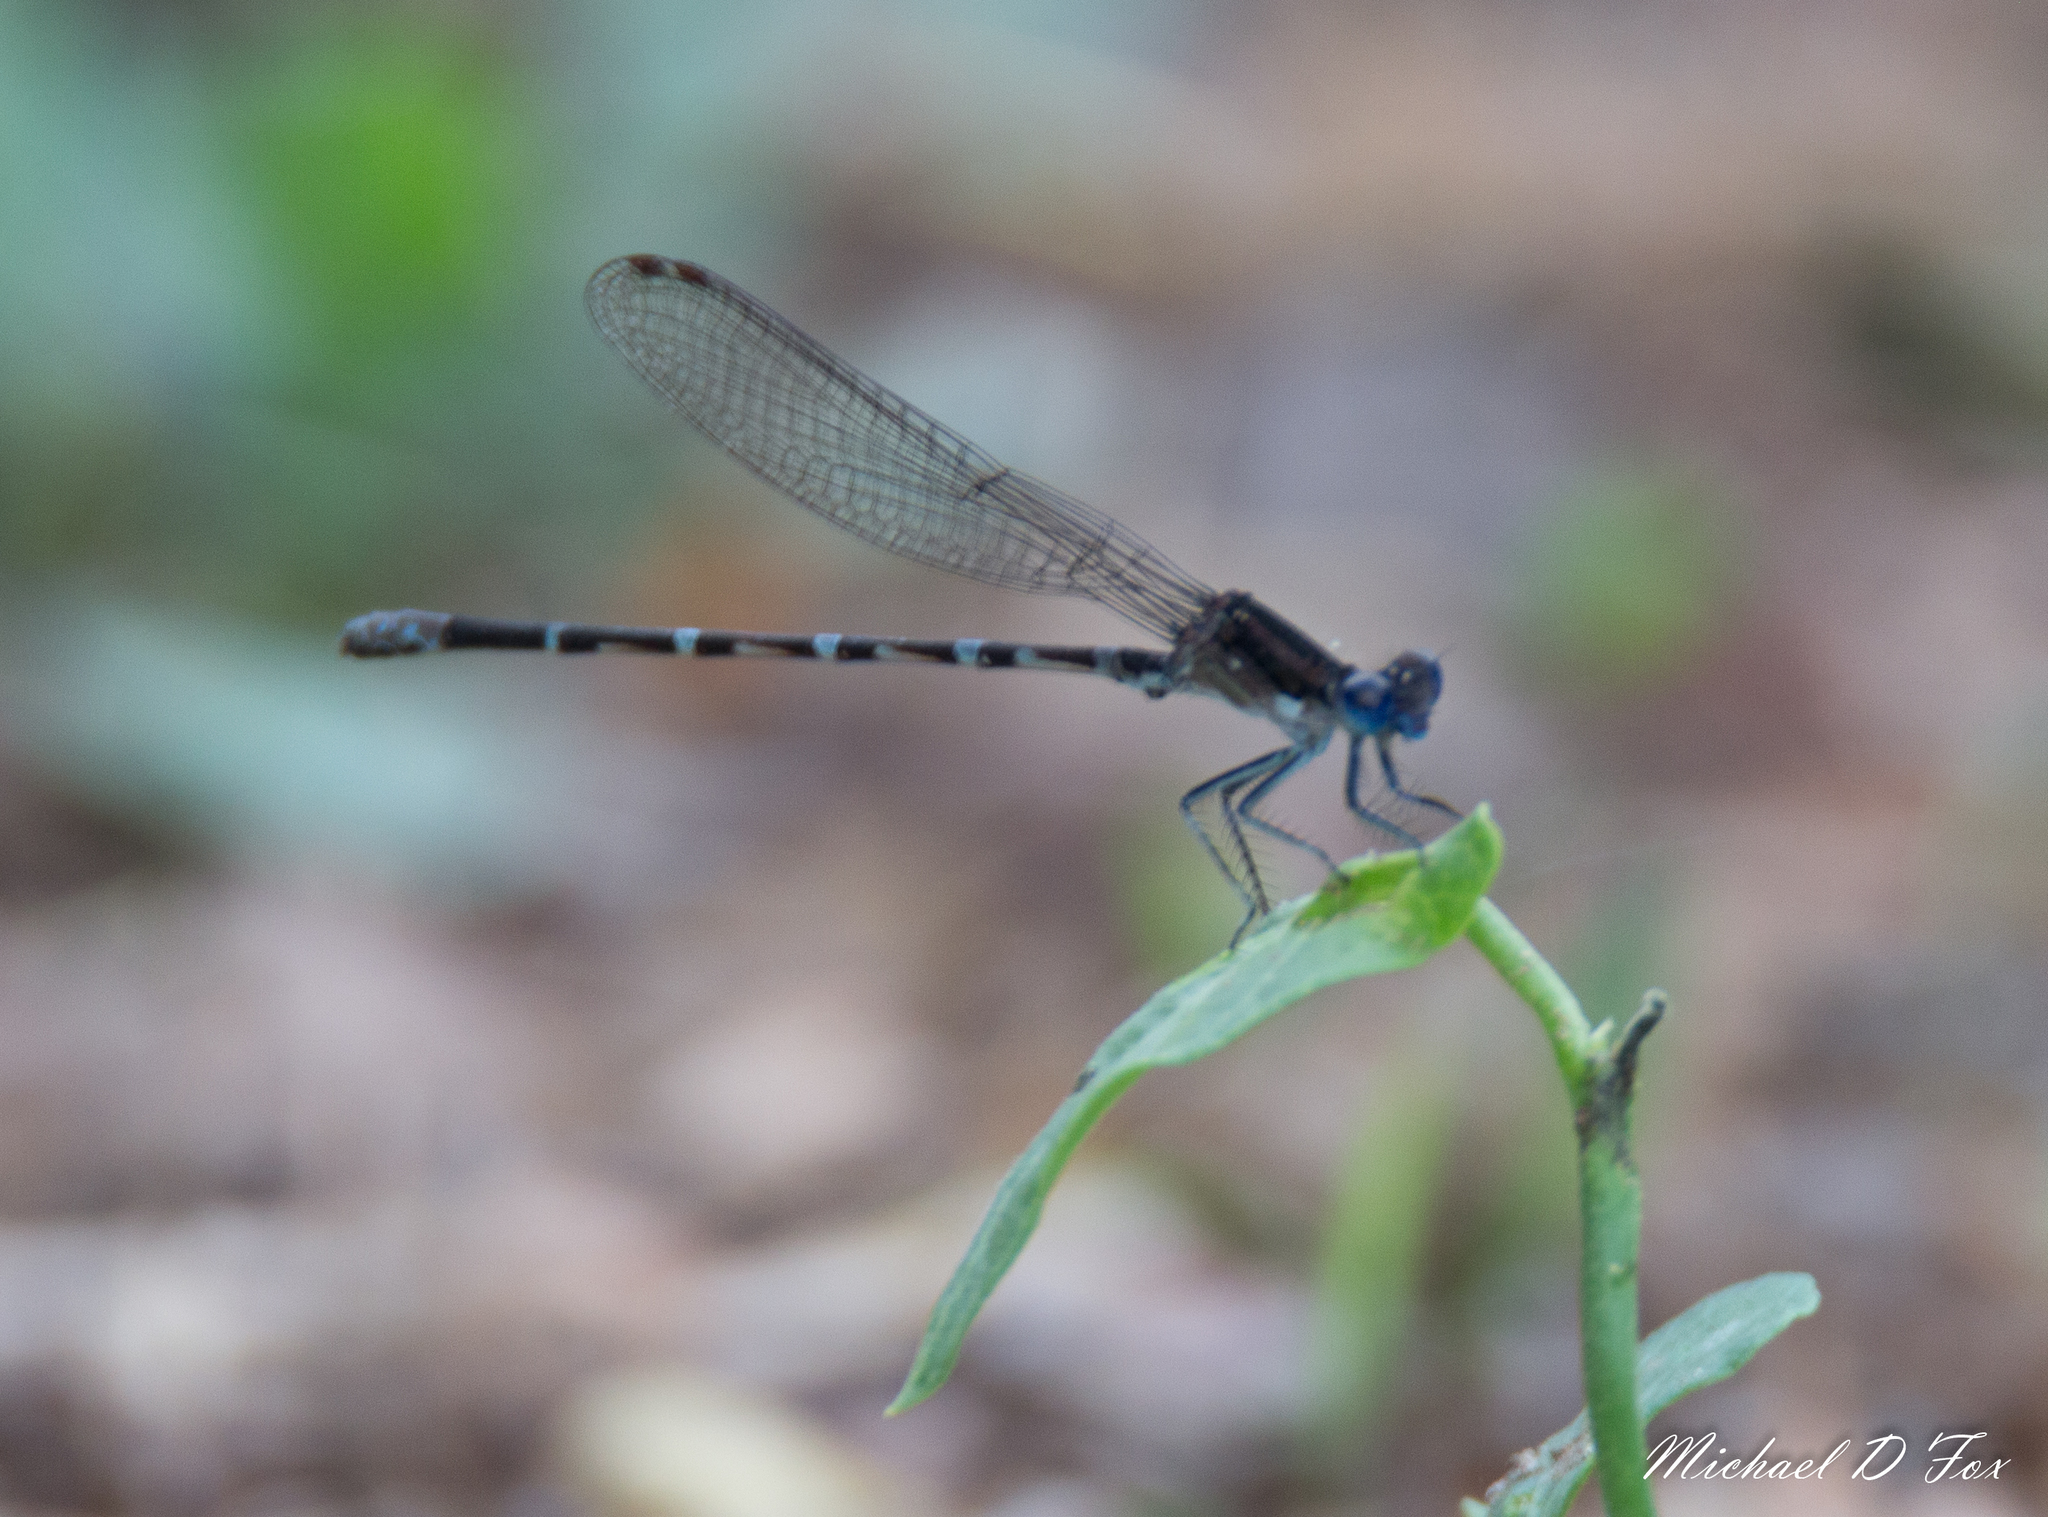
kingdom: Animalia
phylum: Arthropoda
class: Insecta
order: Odonata
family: Coenagrionidae
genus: Argia
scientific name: Argia sedula
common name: Blue-ringed dancer
